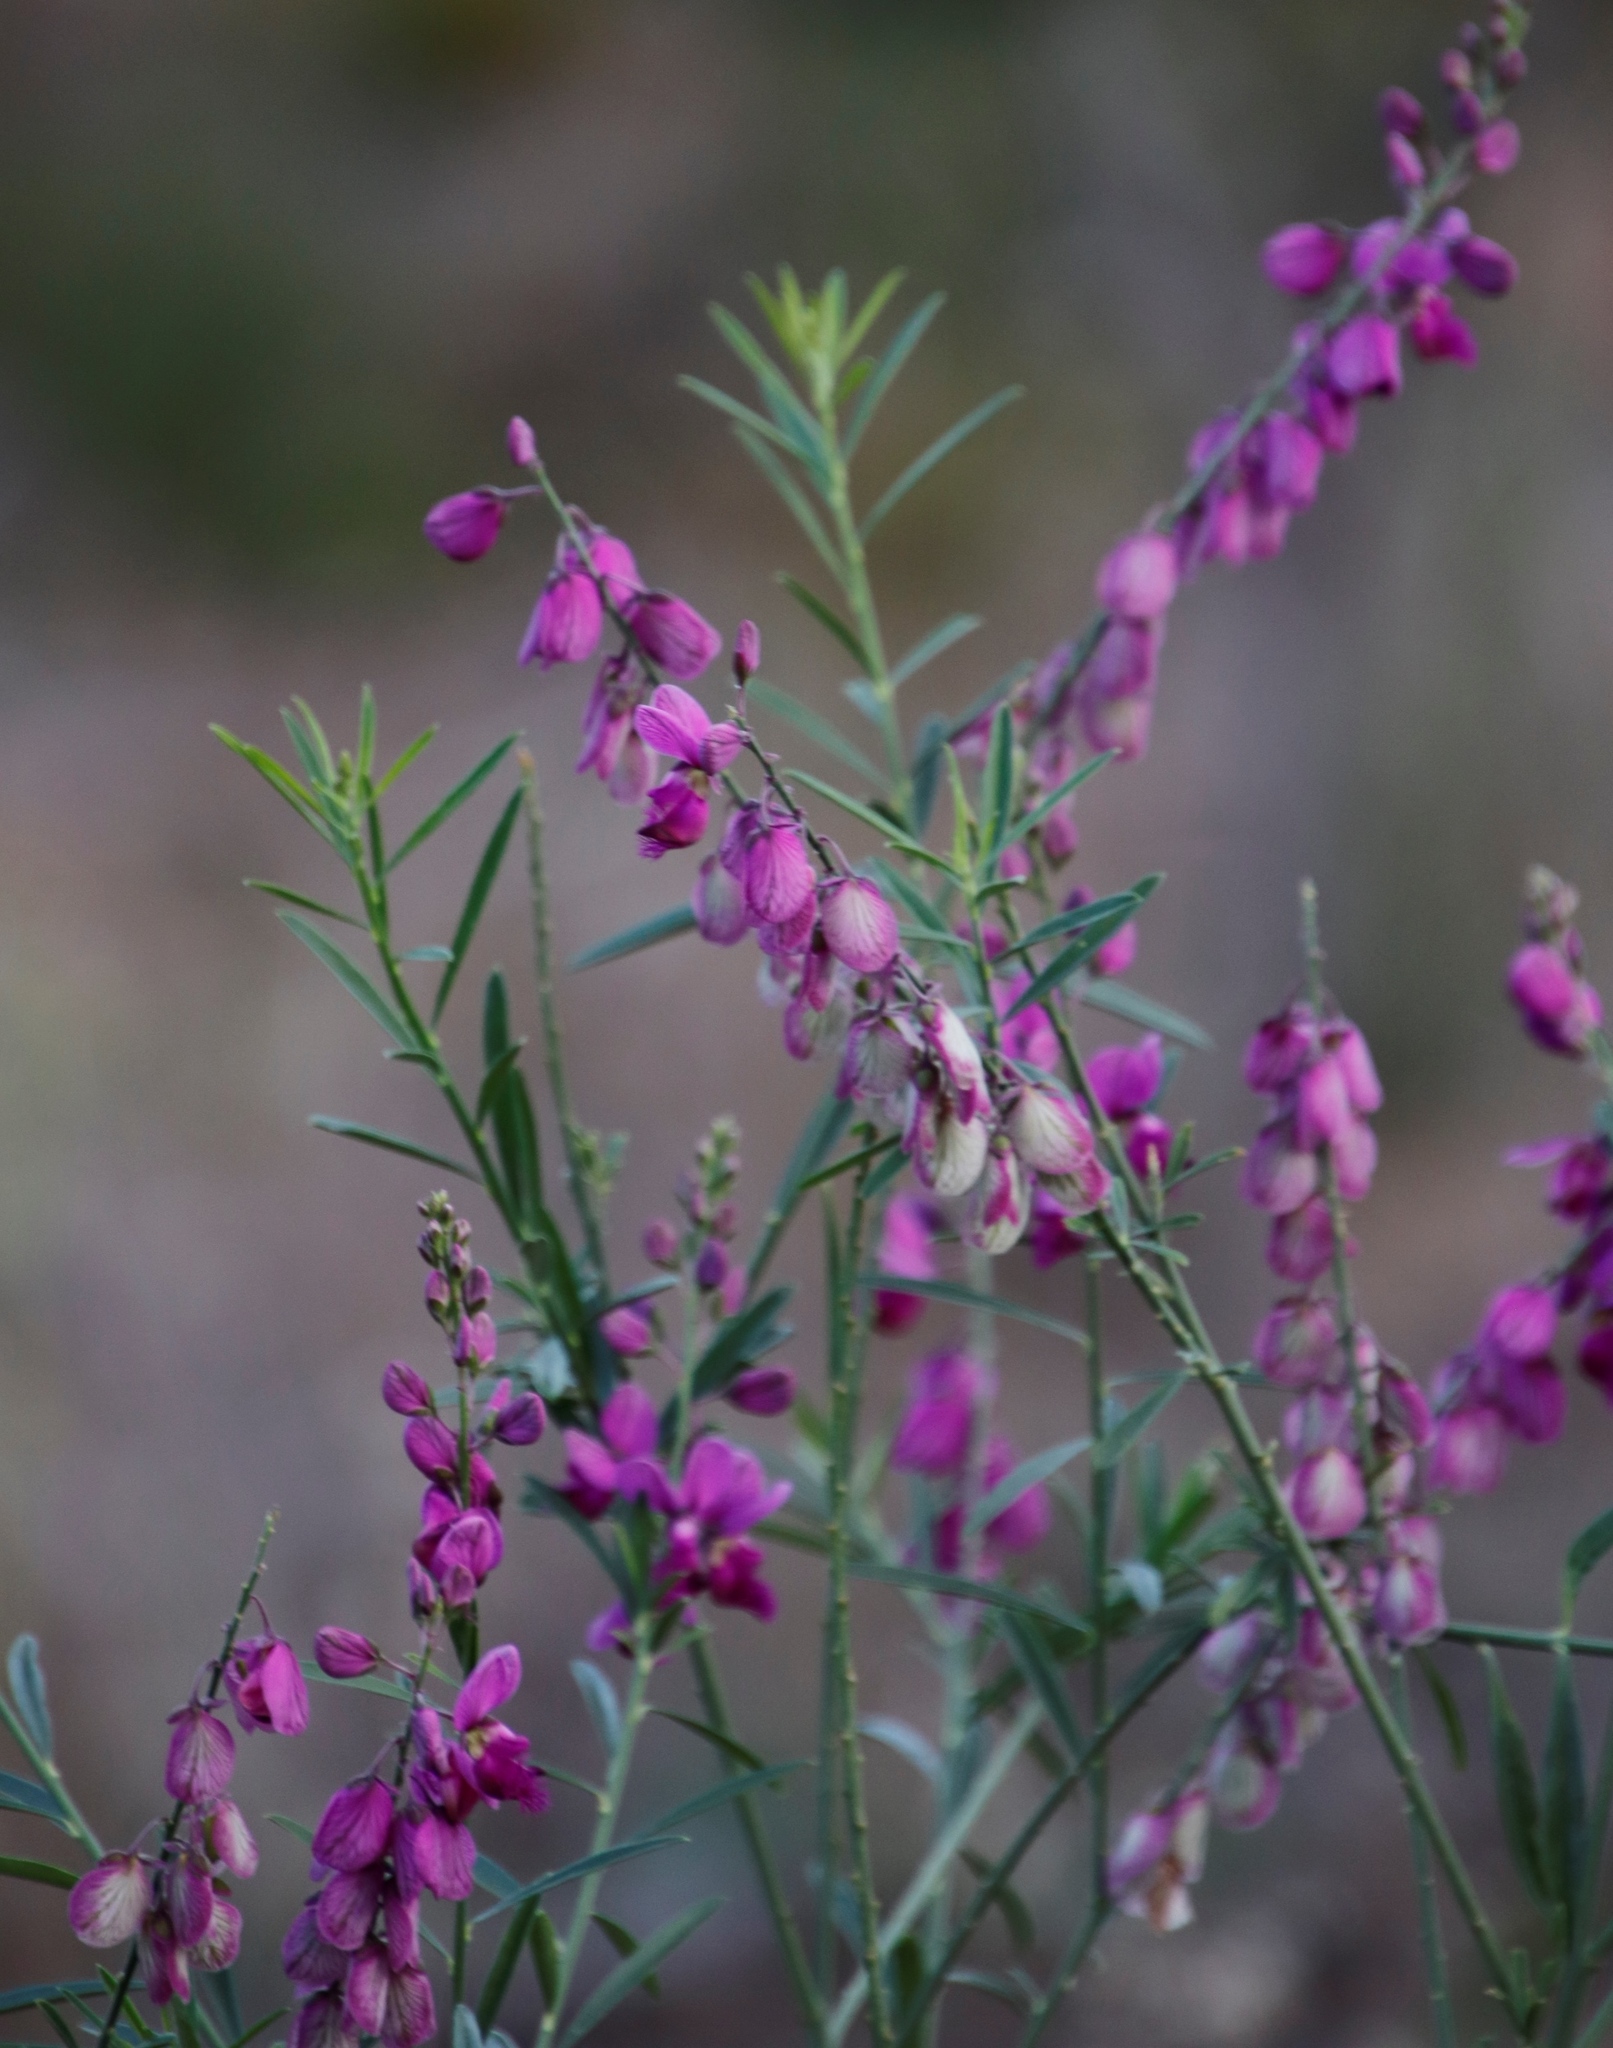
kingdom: Plantae
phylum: Tracheophyta
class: Magnoliopsida
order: Fabales
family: Polygalaceae
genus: Polygala
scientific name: Polygala virgata
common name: Milkwort
